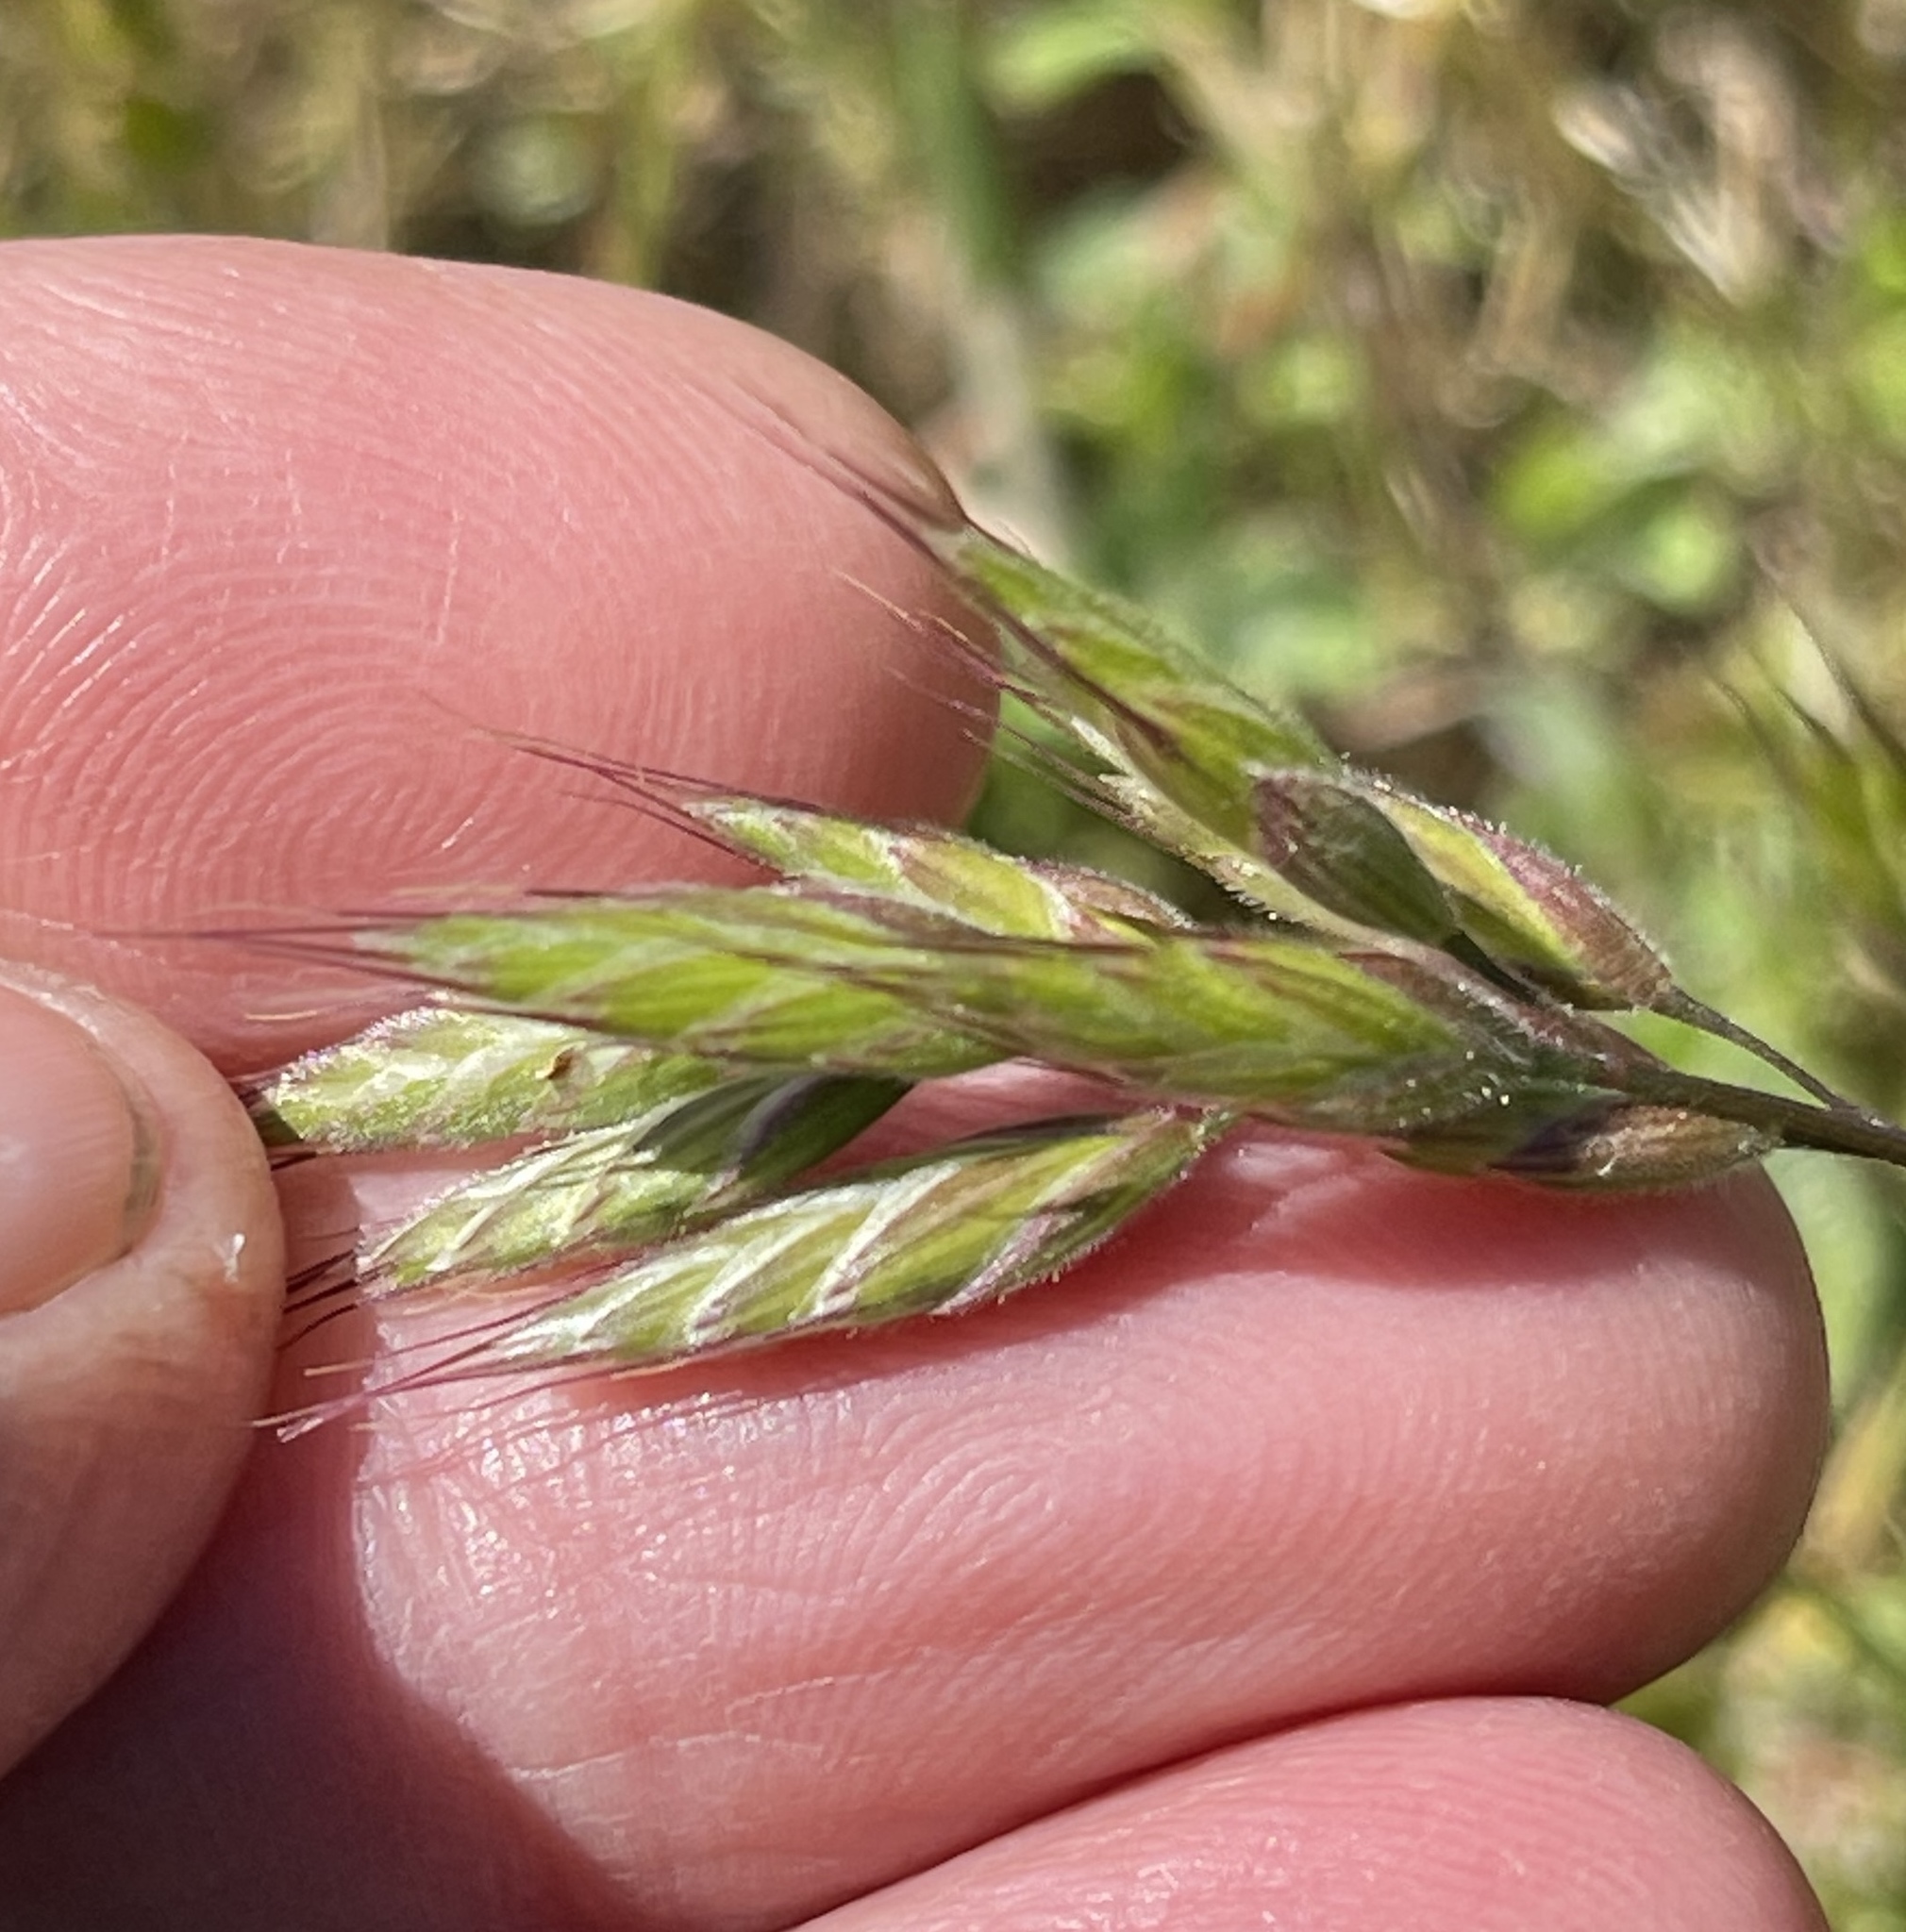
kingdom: Plantae
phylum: Tracheophyta
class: Liliopsida
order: Poales
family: Poaceae
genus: Bromus
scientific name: Bromus hordeaceus
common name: Soft brome
